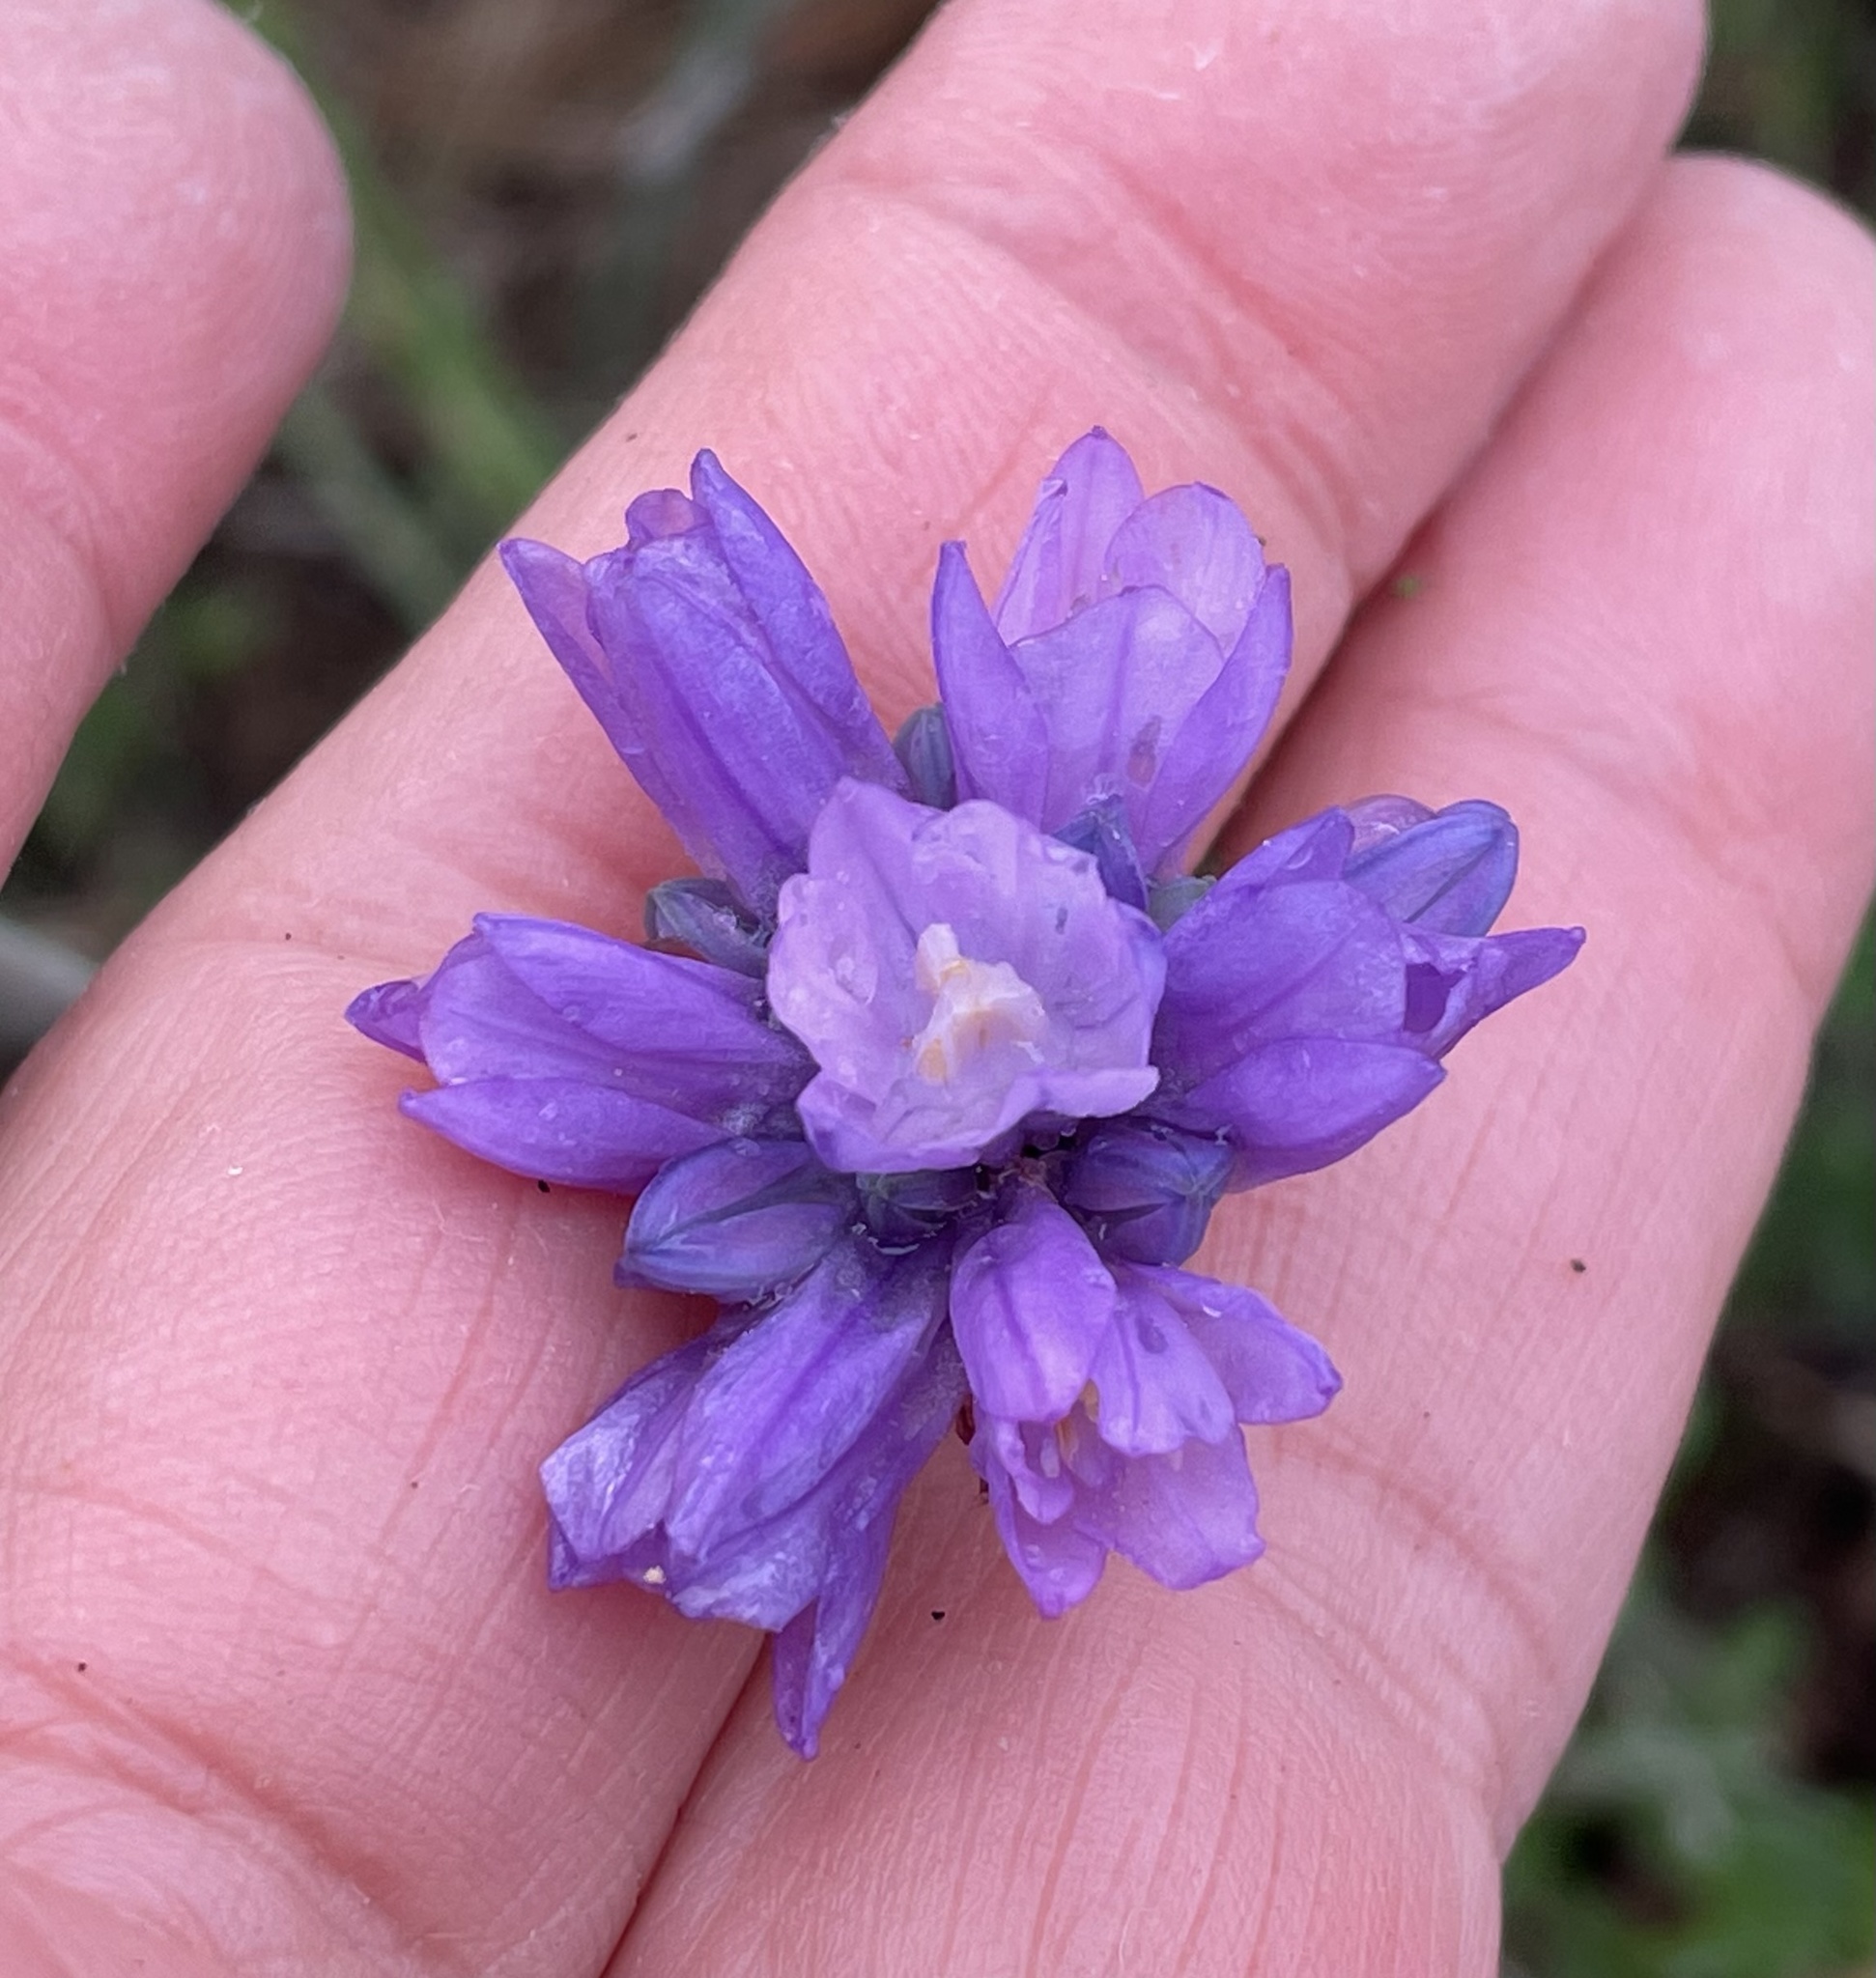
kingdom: Plantae
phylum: Tracheophyta
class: Liliopsida
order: Asparagales
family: Asparagaceae
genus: Dipterostemon
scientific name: Dipterostemon capitatus
